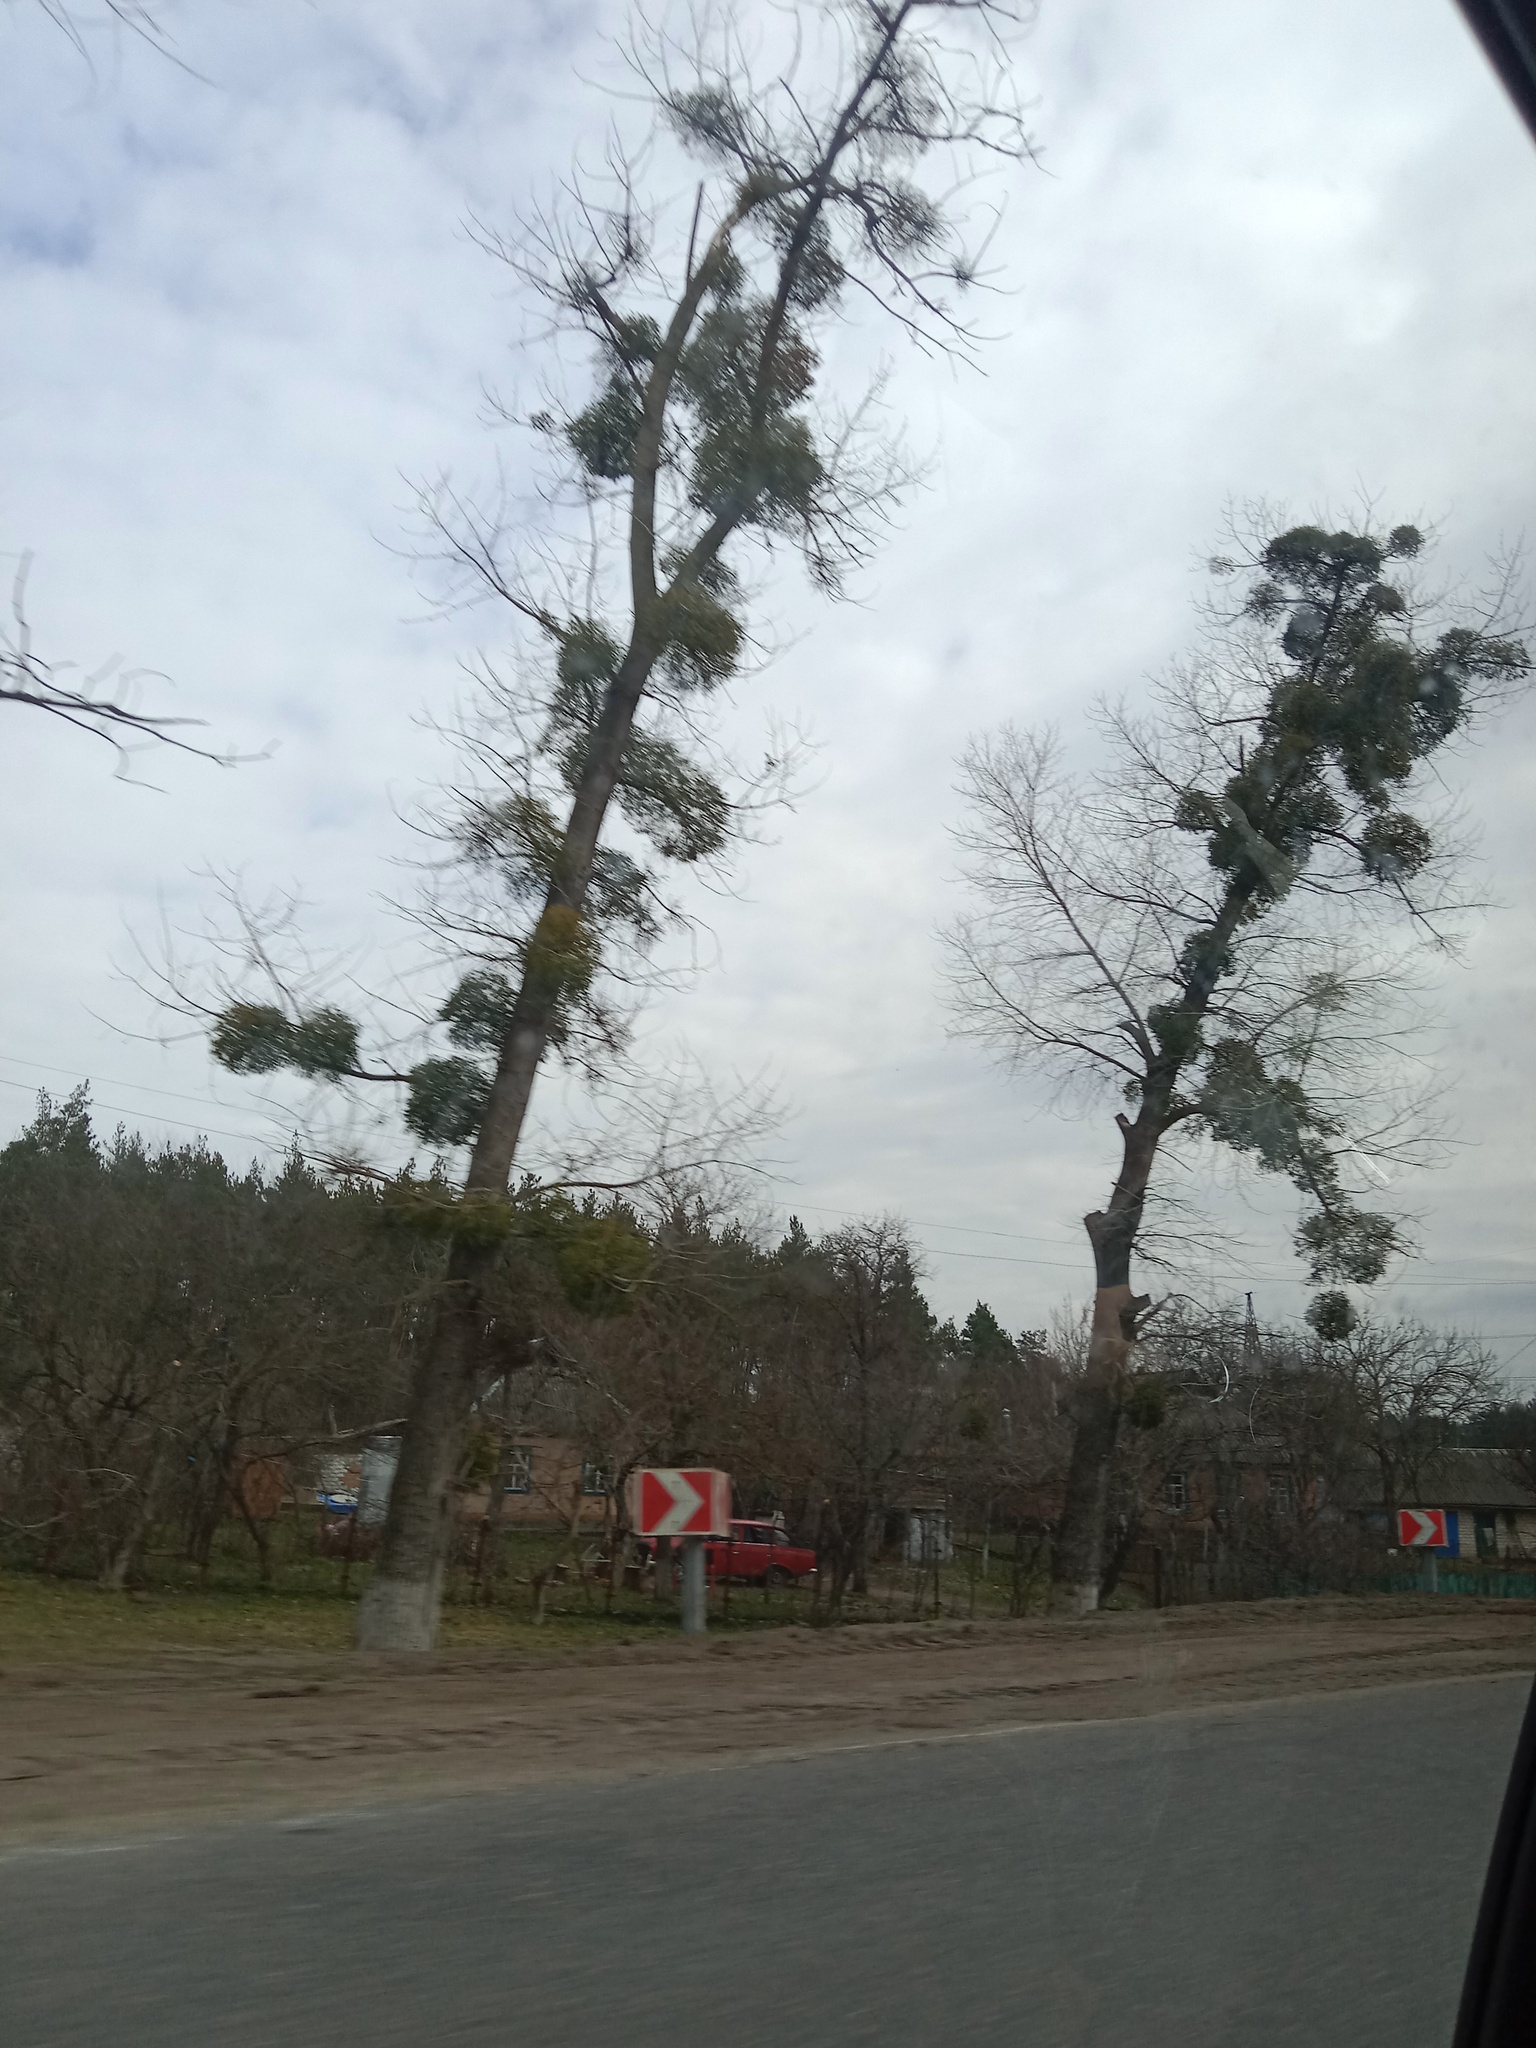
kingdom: Plantae
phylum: Tracheophyta
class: Magnoliopsida
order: Santalales
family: Viscaceae
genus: Viscum
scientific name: Viscum album
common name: Mistletoe
